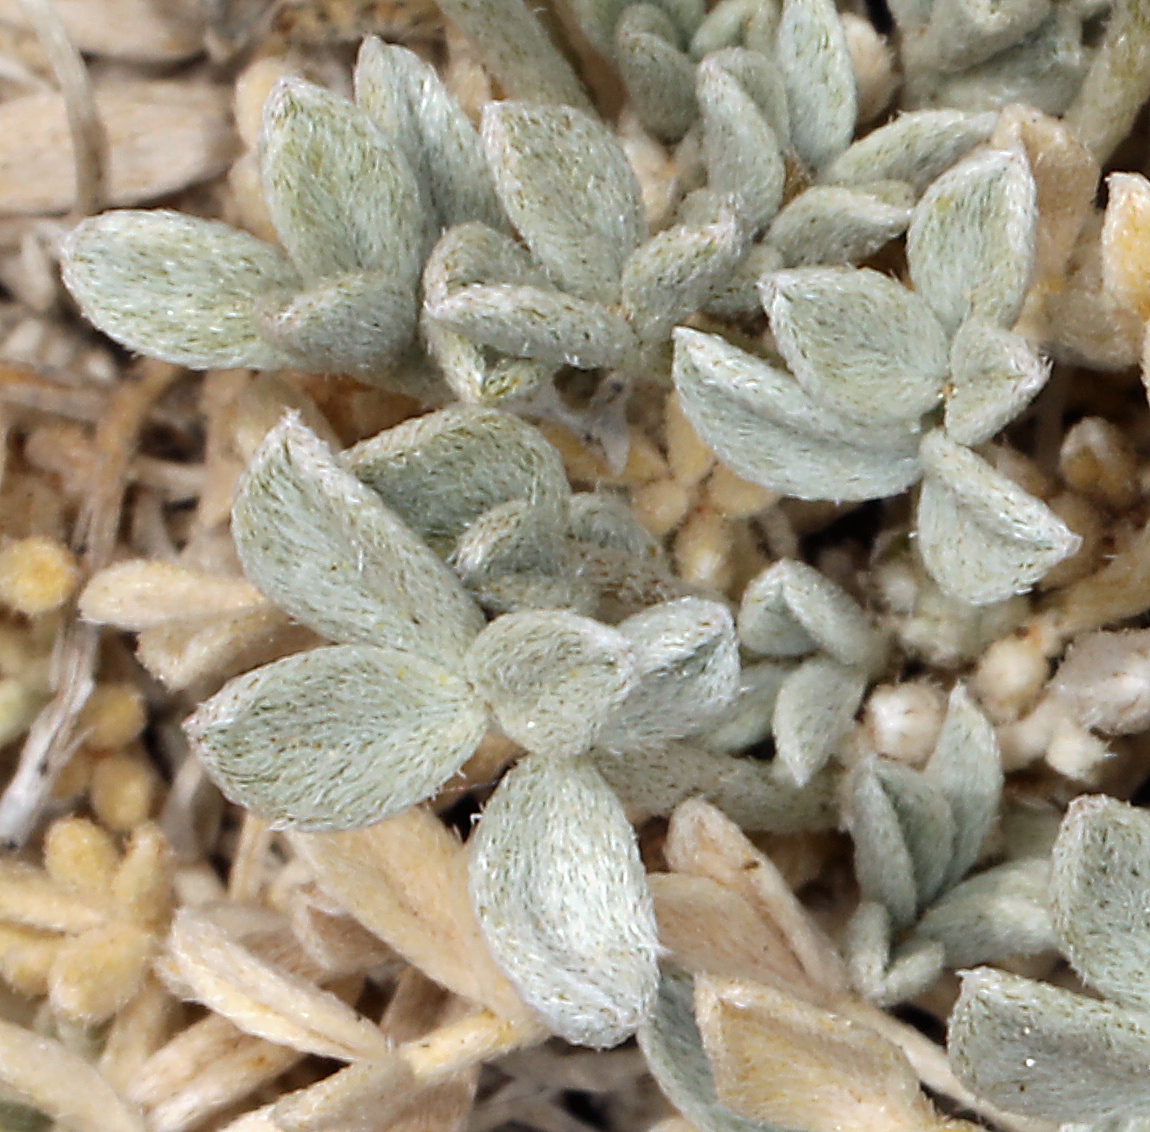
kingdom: Plantae
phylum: Tracheophyta
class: Magnoliopsida
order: Fabales
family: Fabaceae
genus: Astragalus
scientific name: Astragalus calycosus
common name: King's milkvetch
